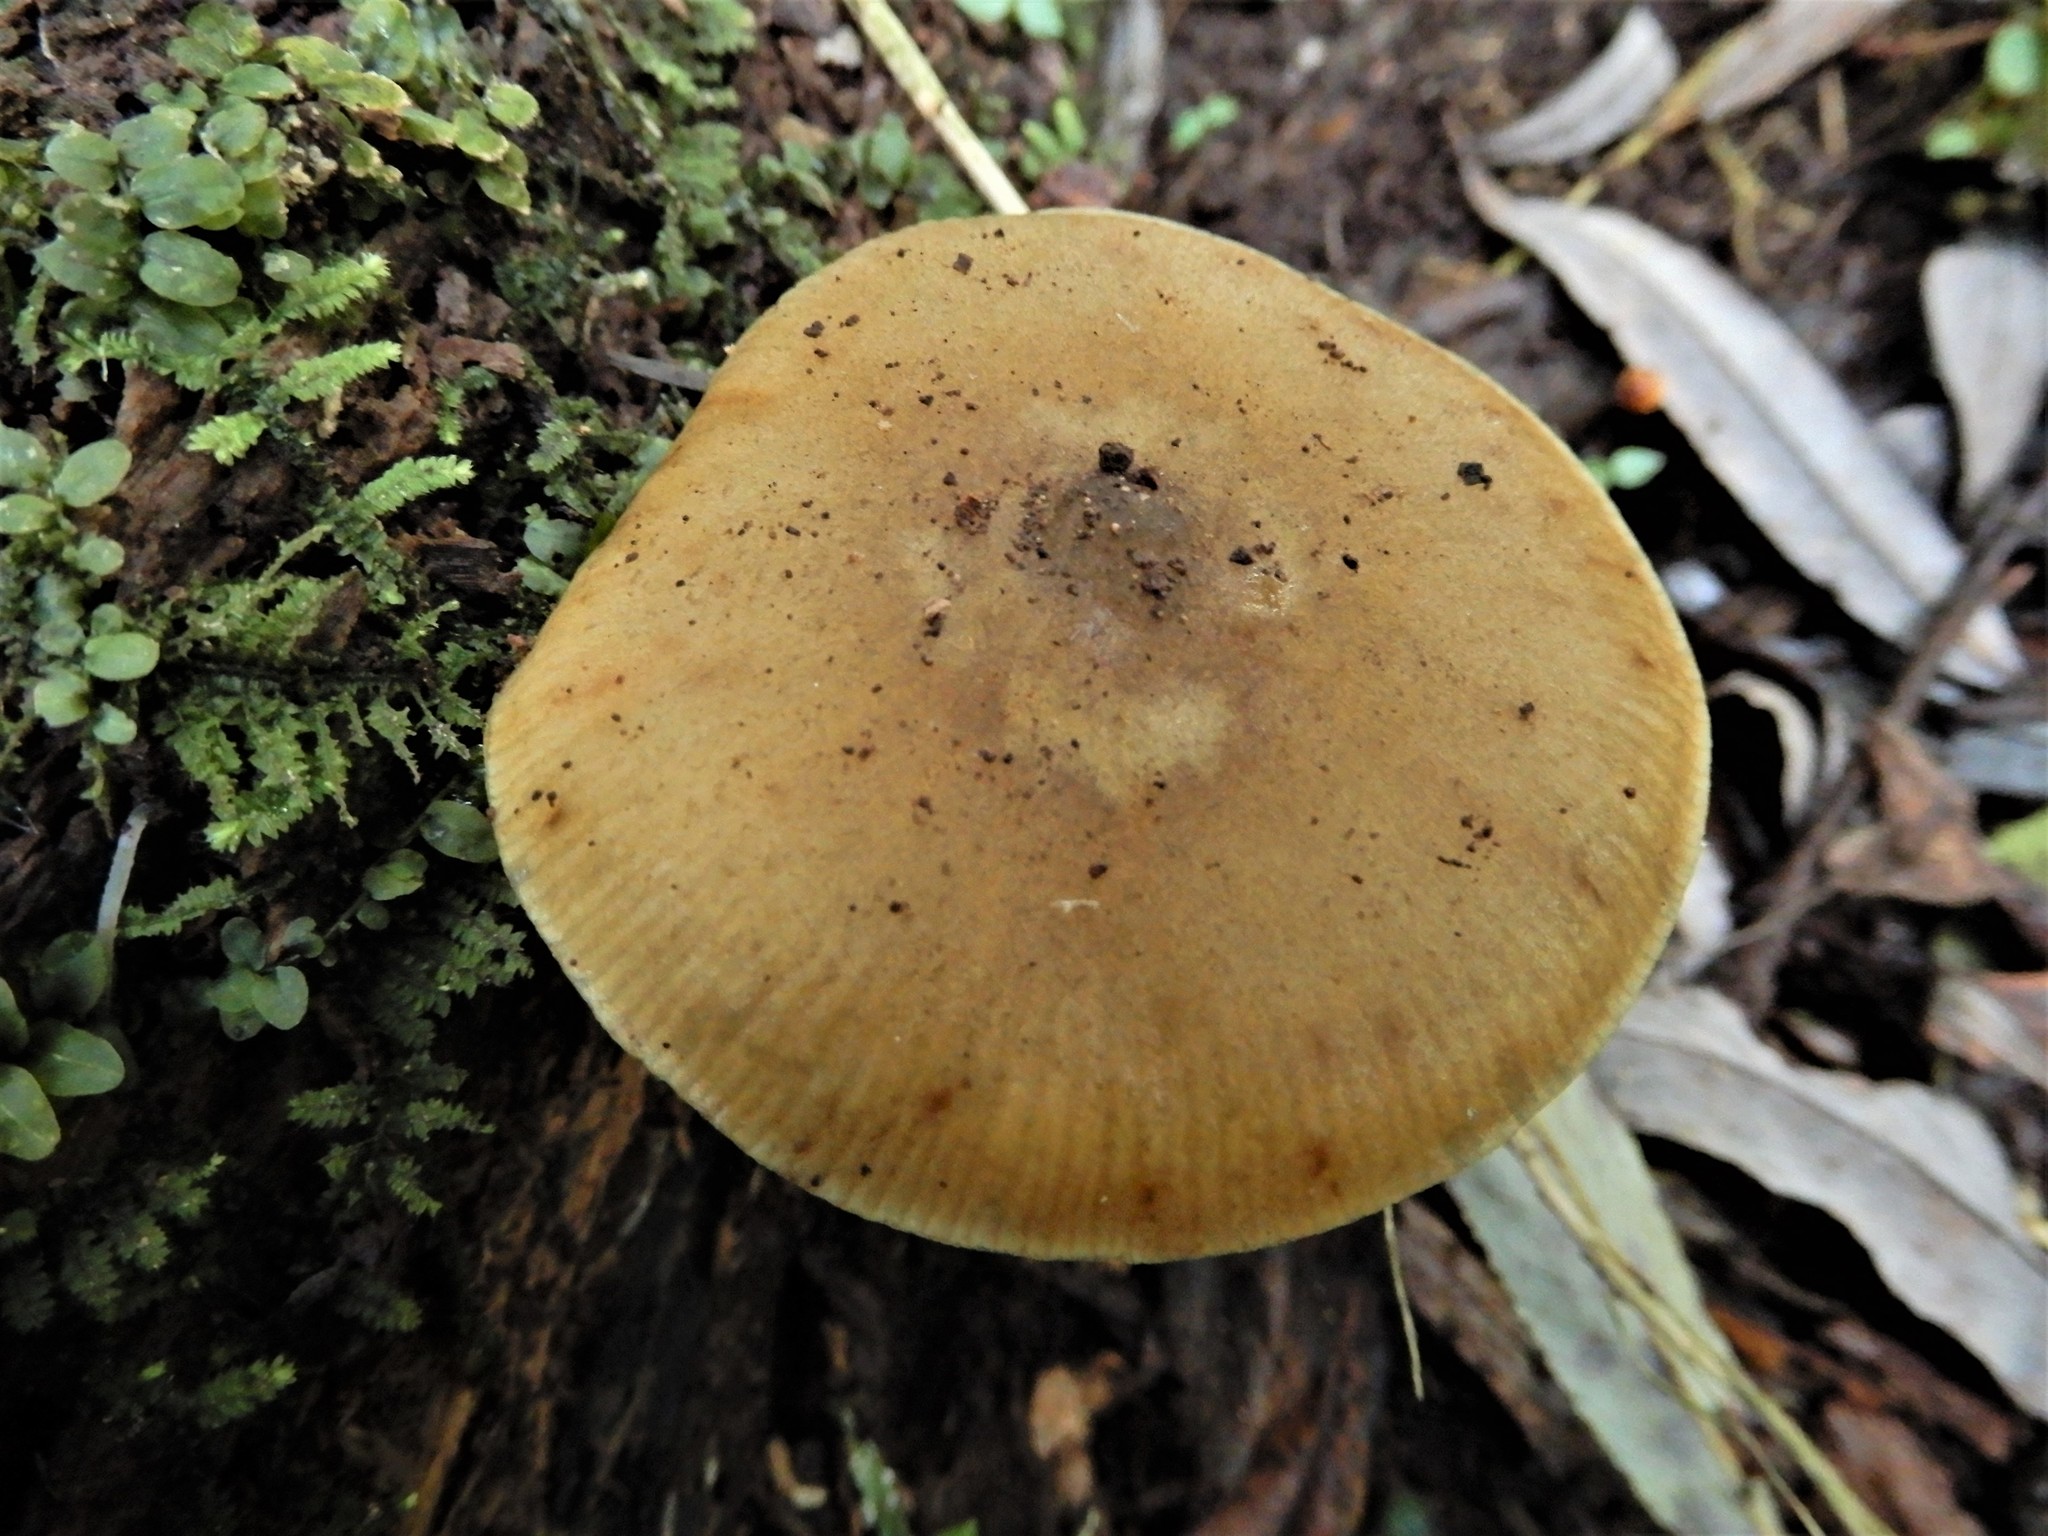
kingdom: Fungi
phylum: Basidiomycota
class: Agaricomycetes
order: Agaricales
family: Physalacriaceae
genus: Armillaria
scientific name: Armillaria novae-zelandiae
